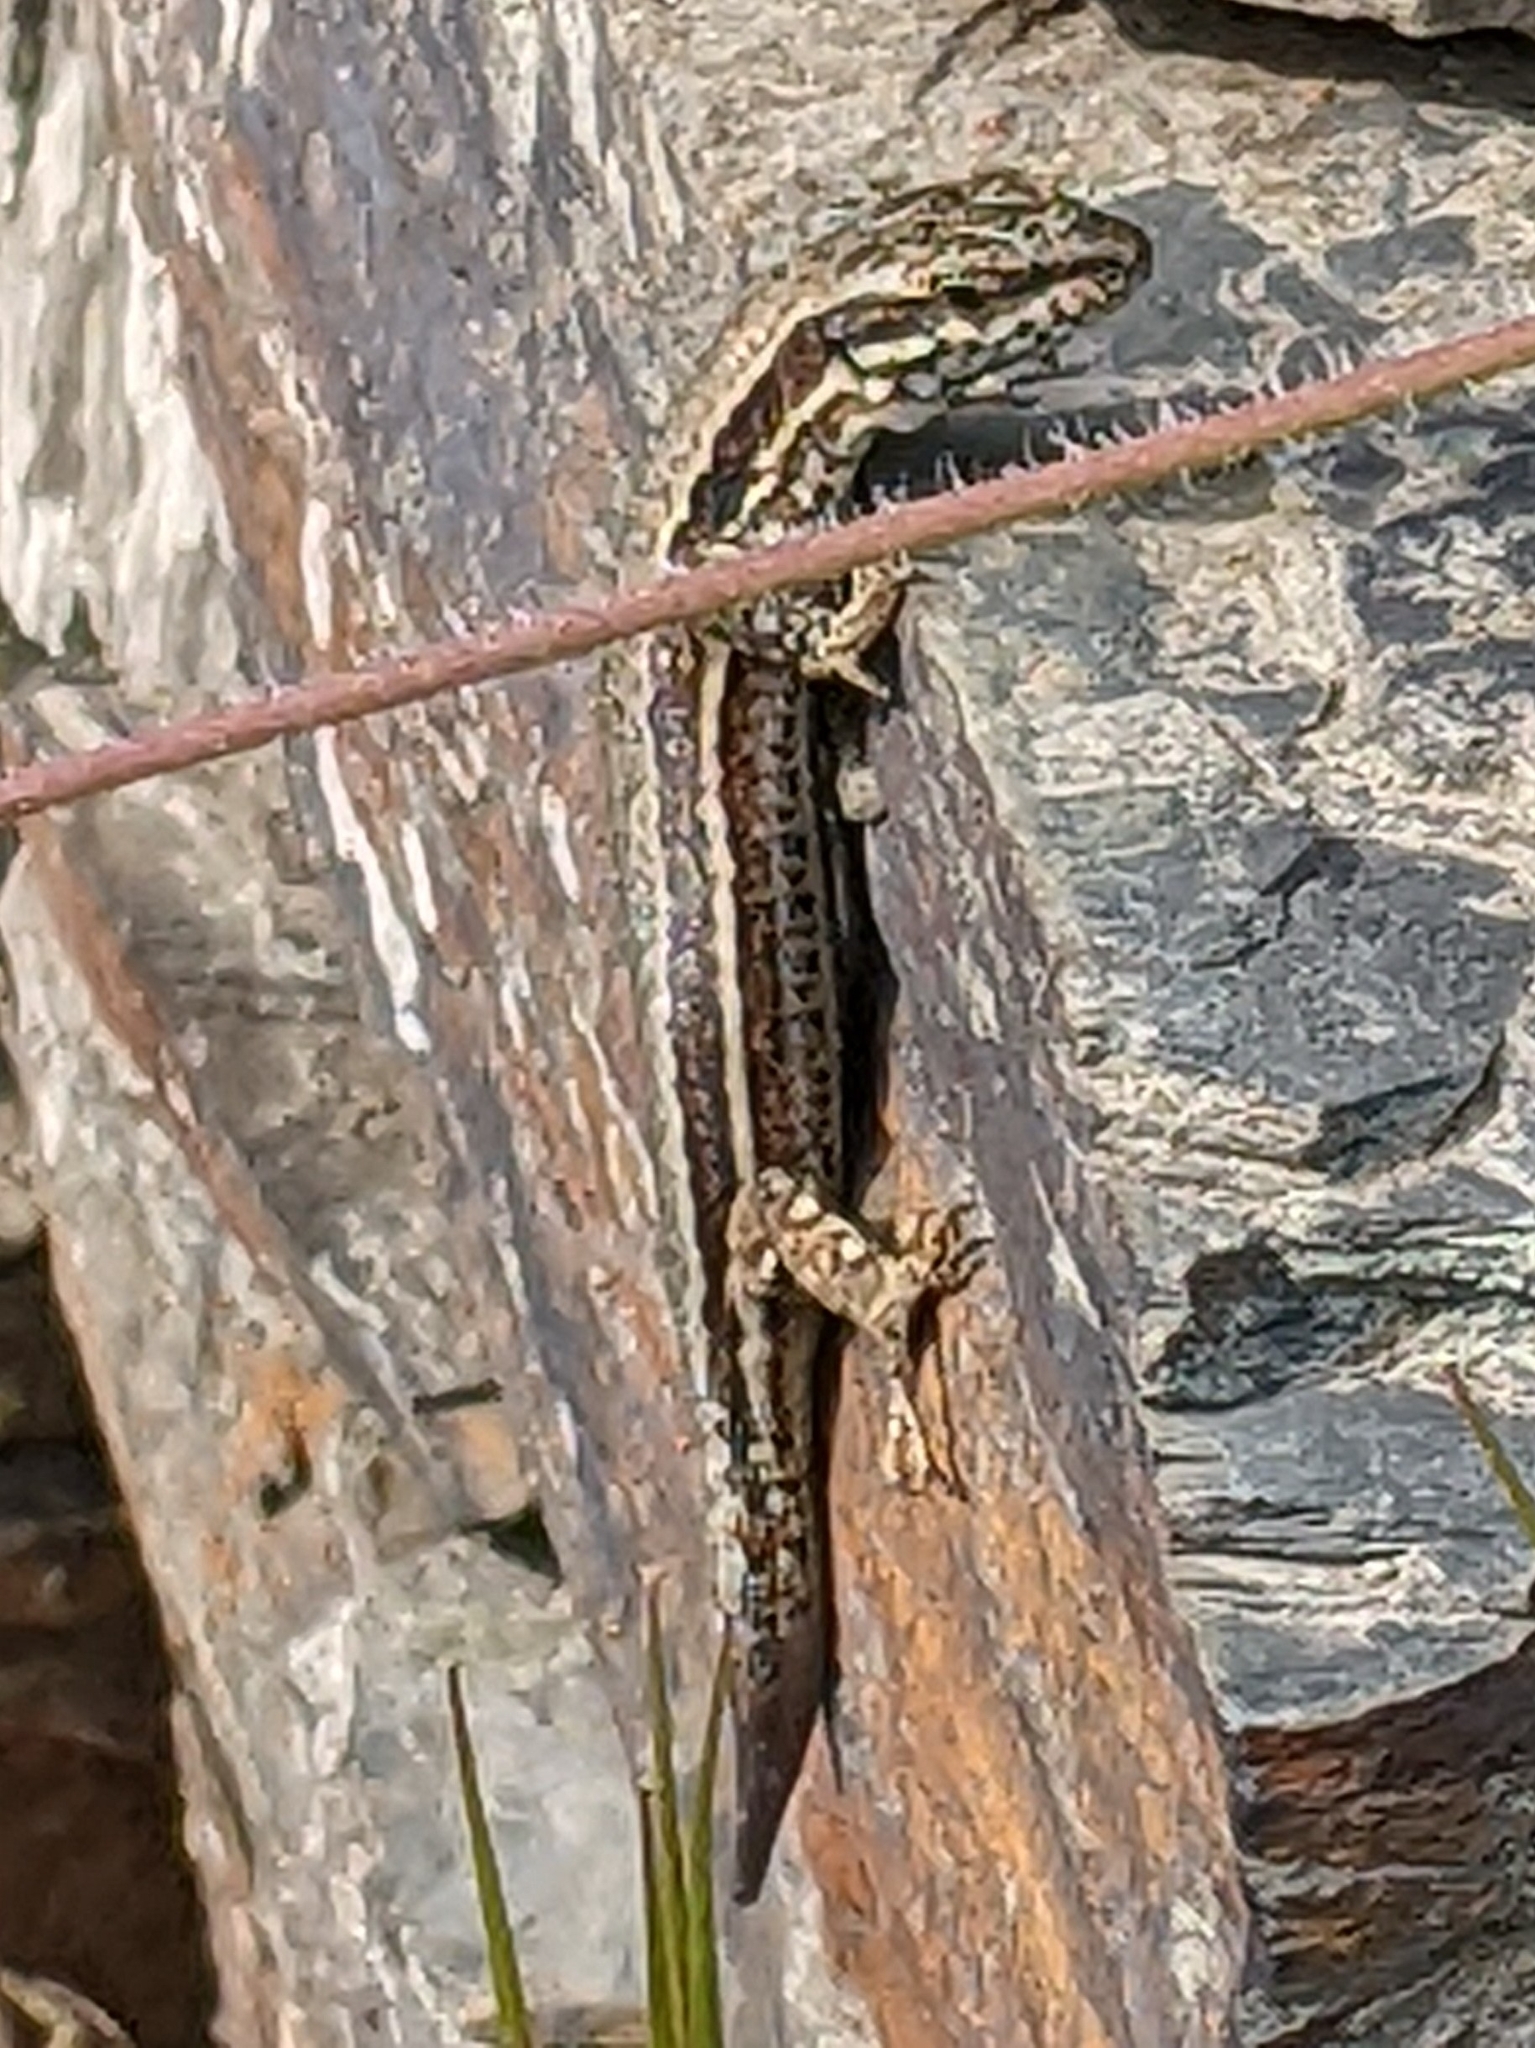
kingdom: Animalia
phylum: Chordata
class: Squamata
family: Lacertidae
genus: Podarcis
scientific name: Podarcis muralis
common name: Common wall lizard
